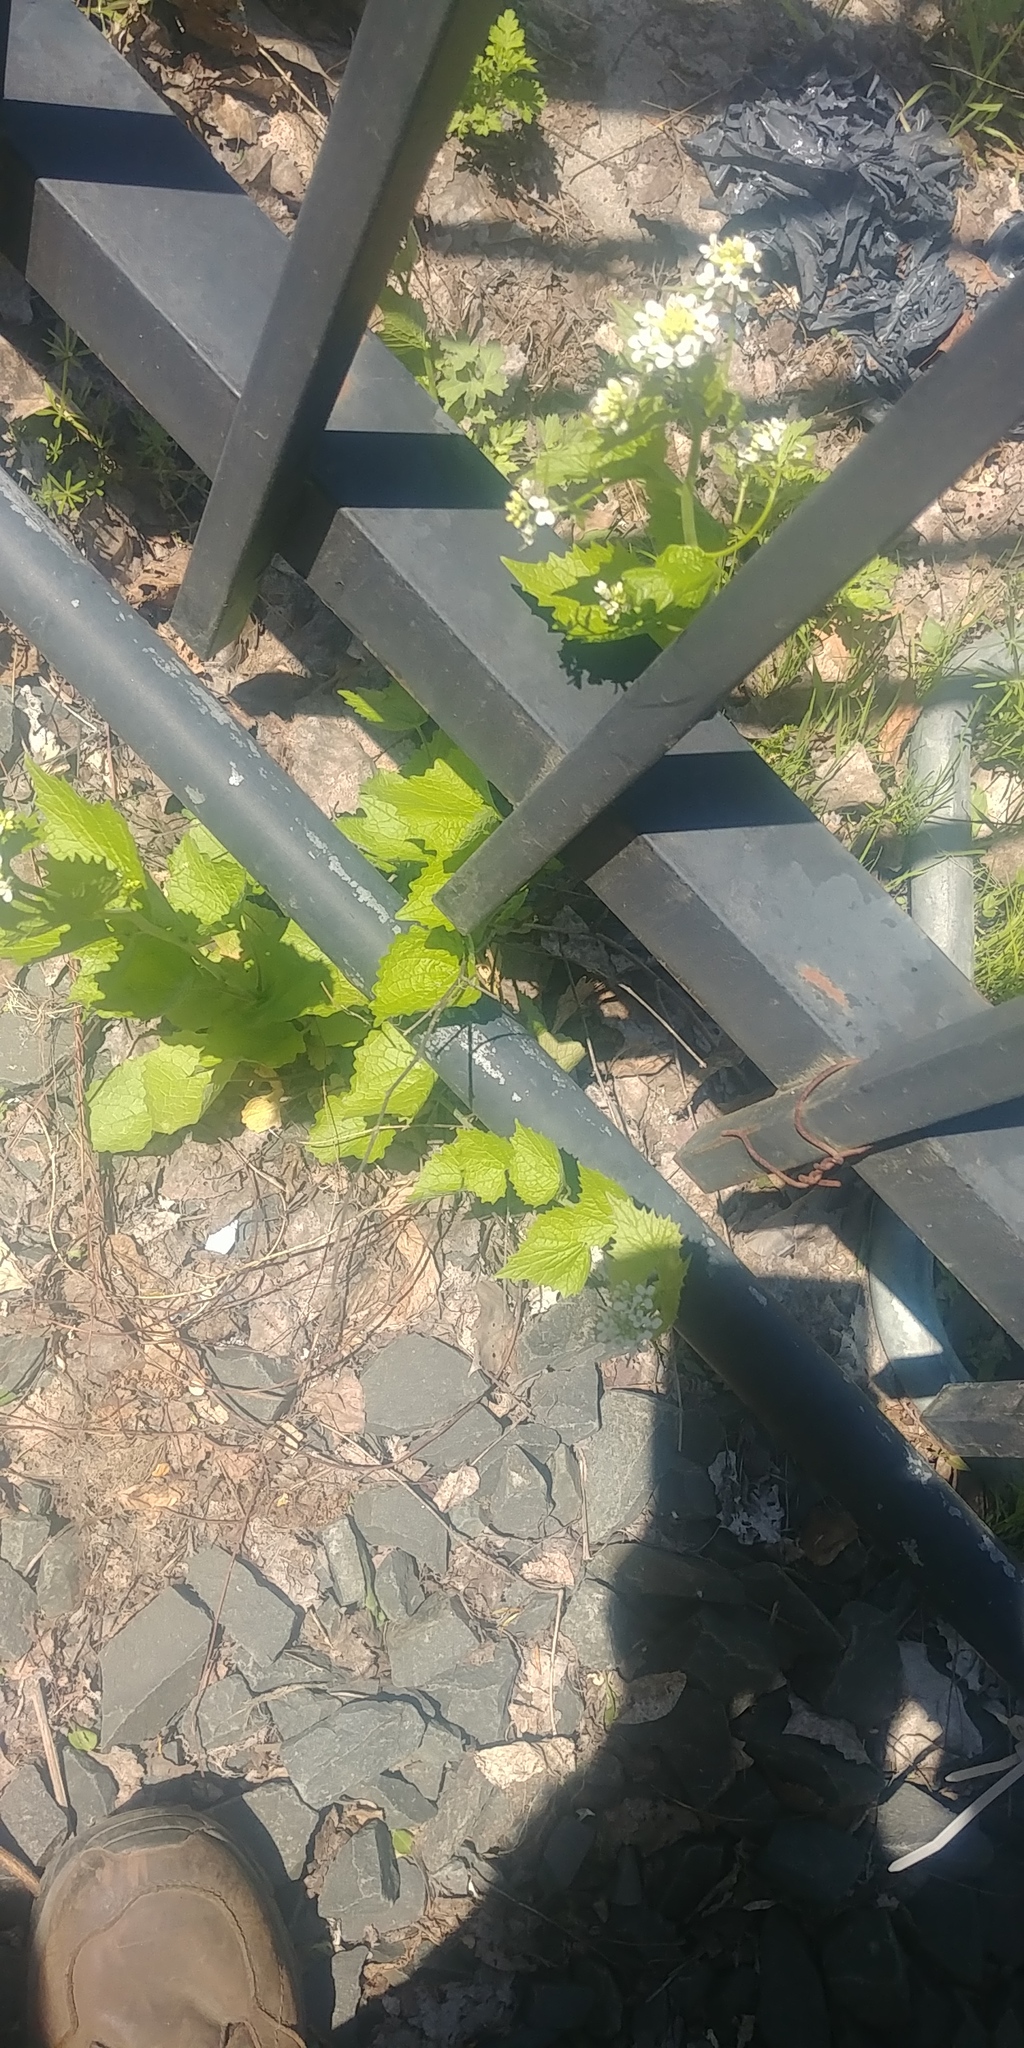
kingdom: Plantae
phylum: Tracheophyta
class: Magnoliopsida
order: Brassicales
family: Brassicaceae
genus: Alliaria
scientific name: Alliaria petiolata
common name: Garlic mustard
